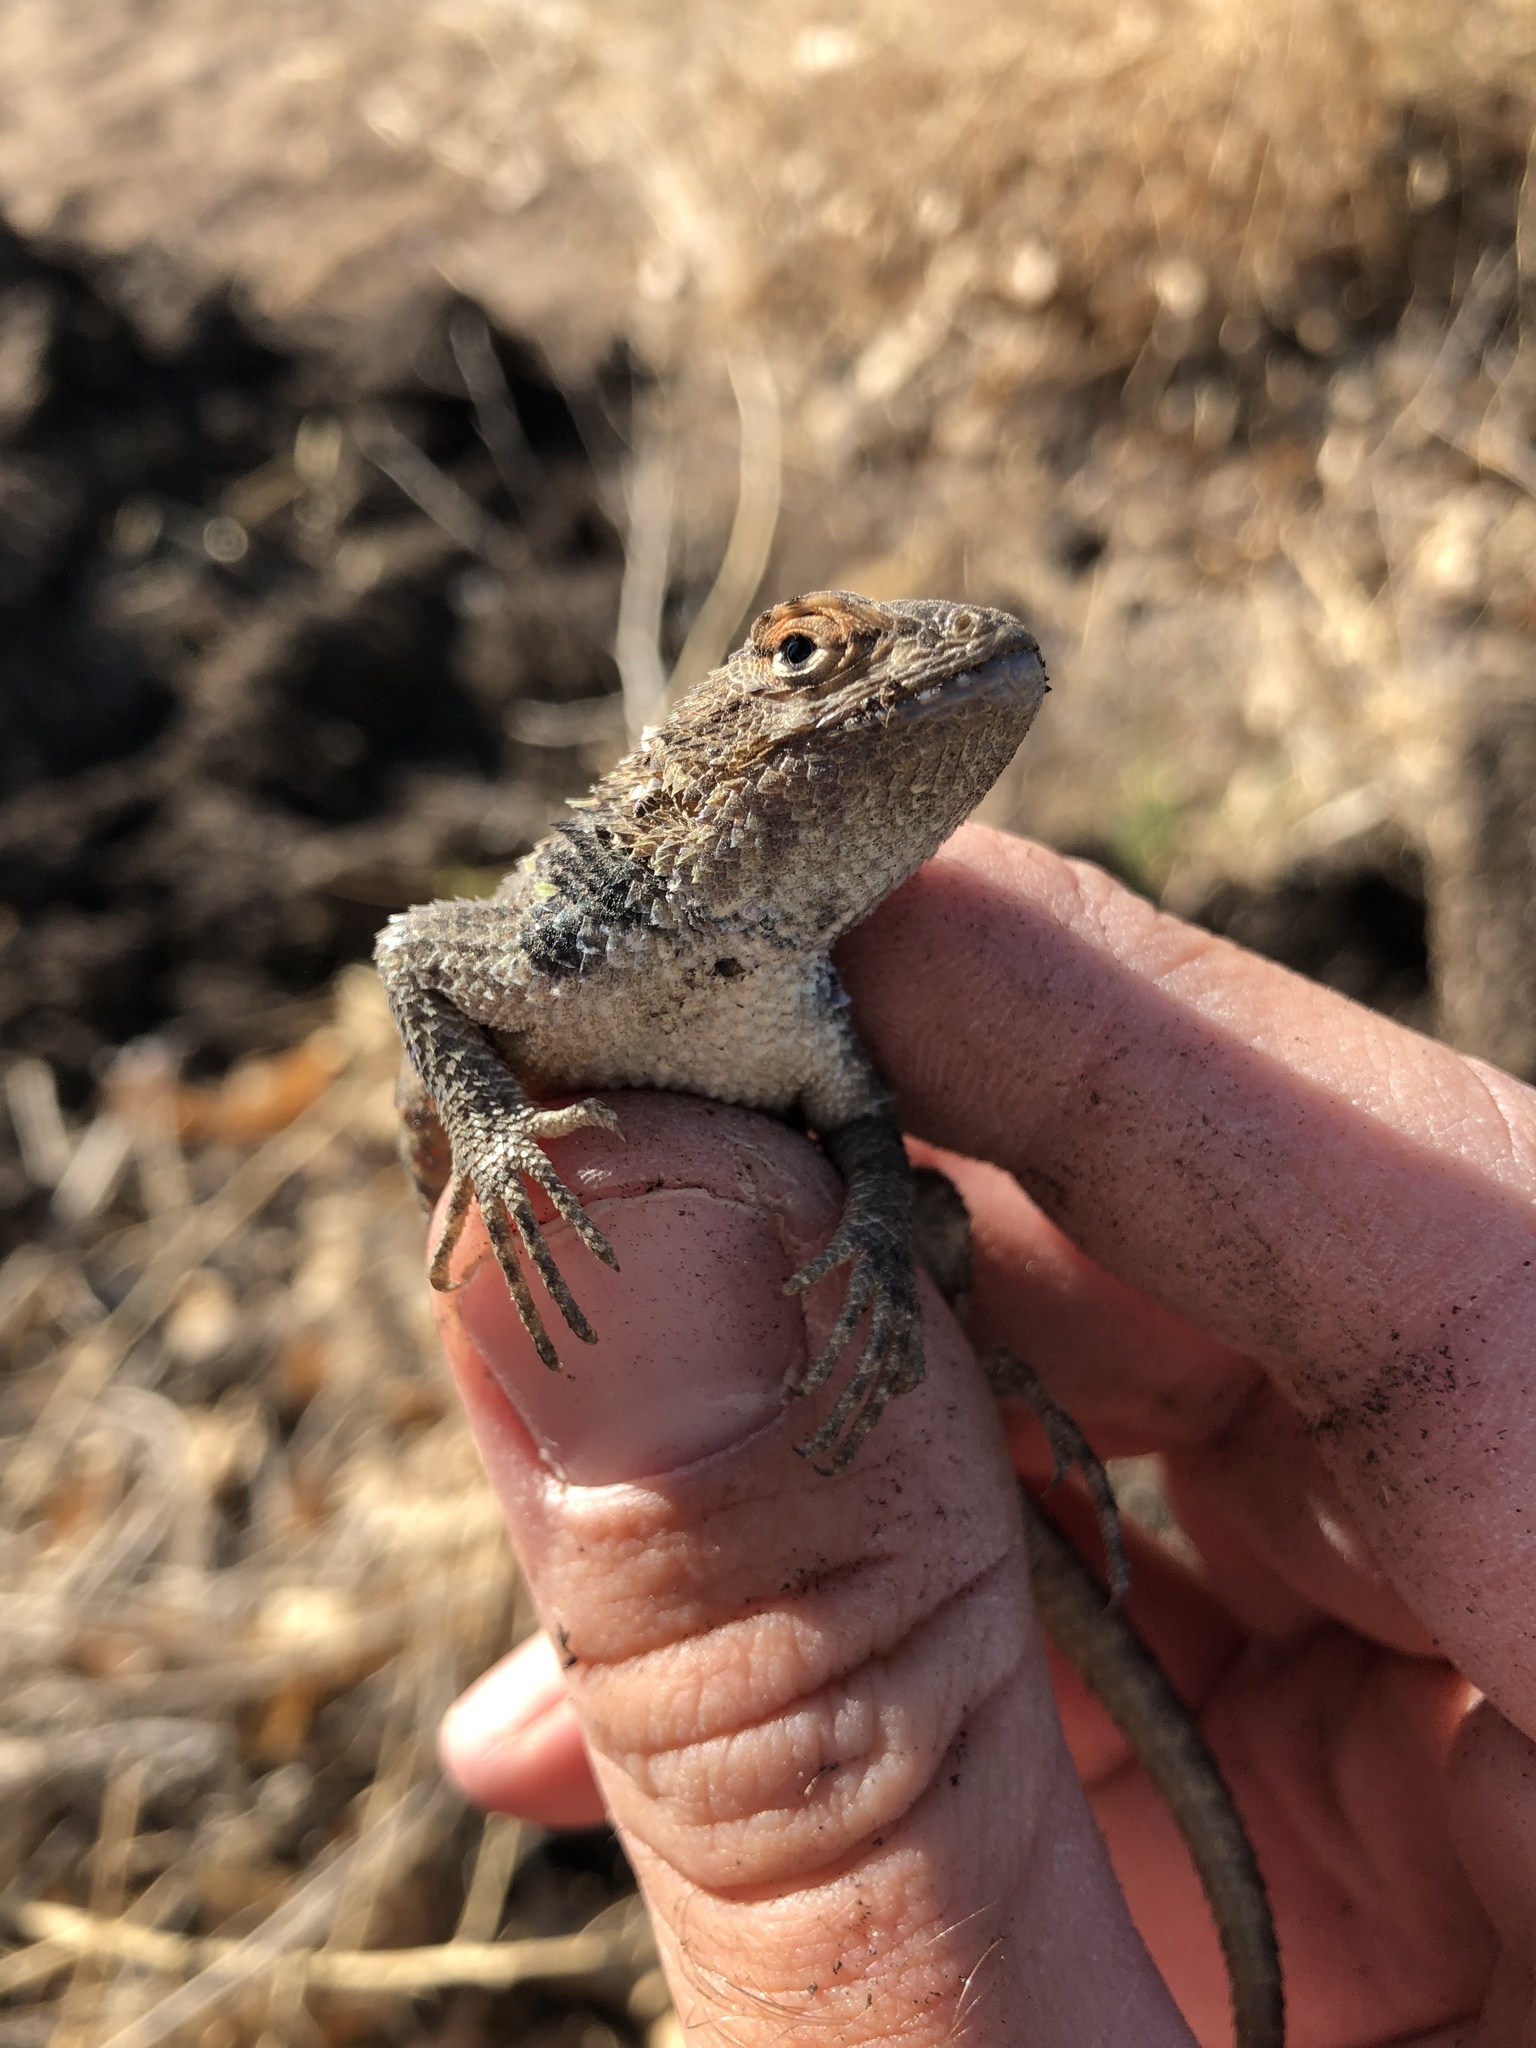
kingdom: Animalia
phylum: Chordata
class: Squamata
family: Phrynosomatidae
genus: Sceloporus
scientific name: Sceloporus bimaculosus
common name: Twin-spotted spiny lizard
